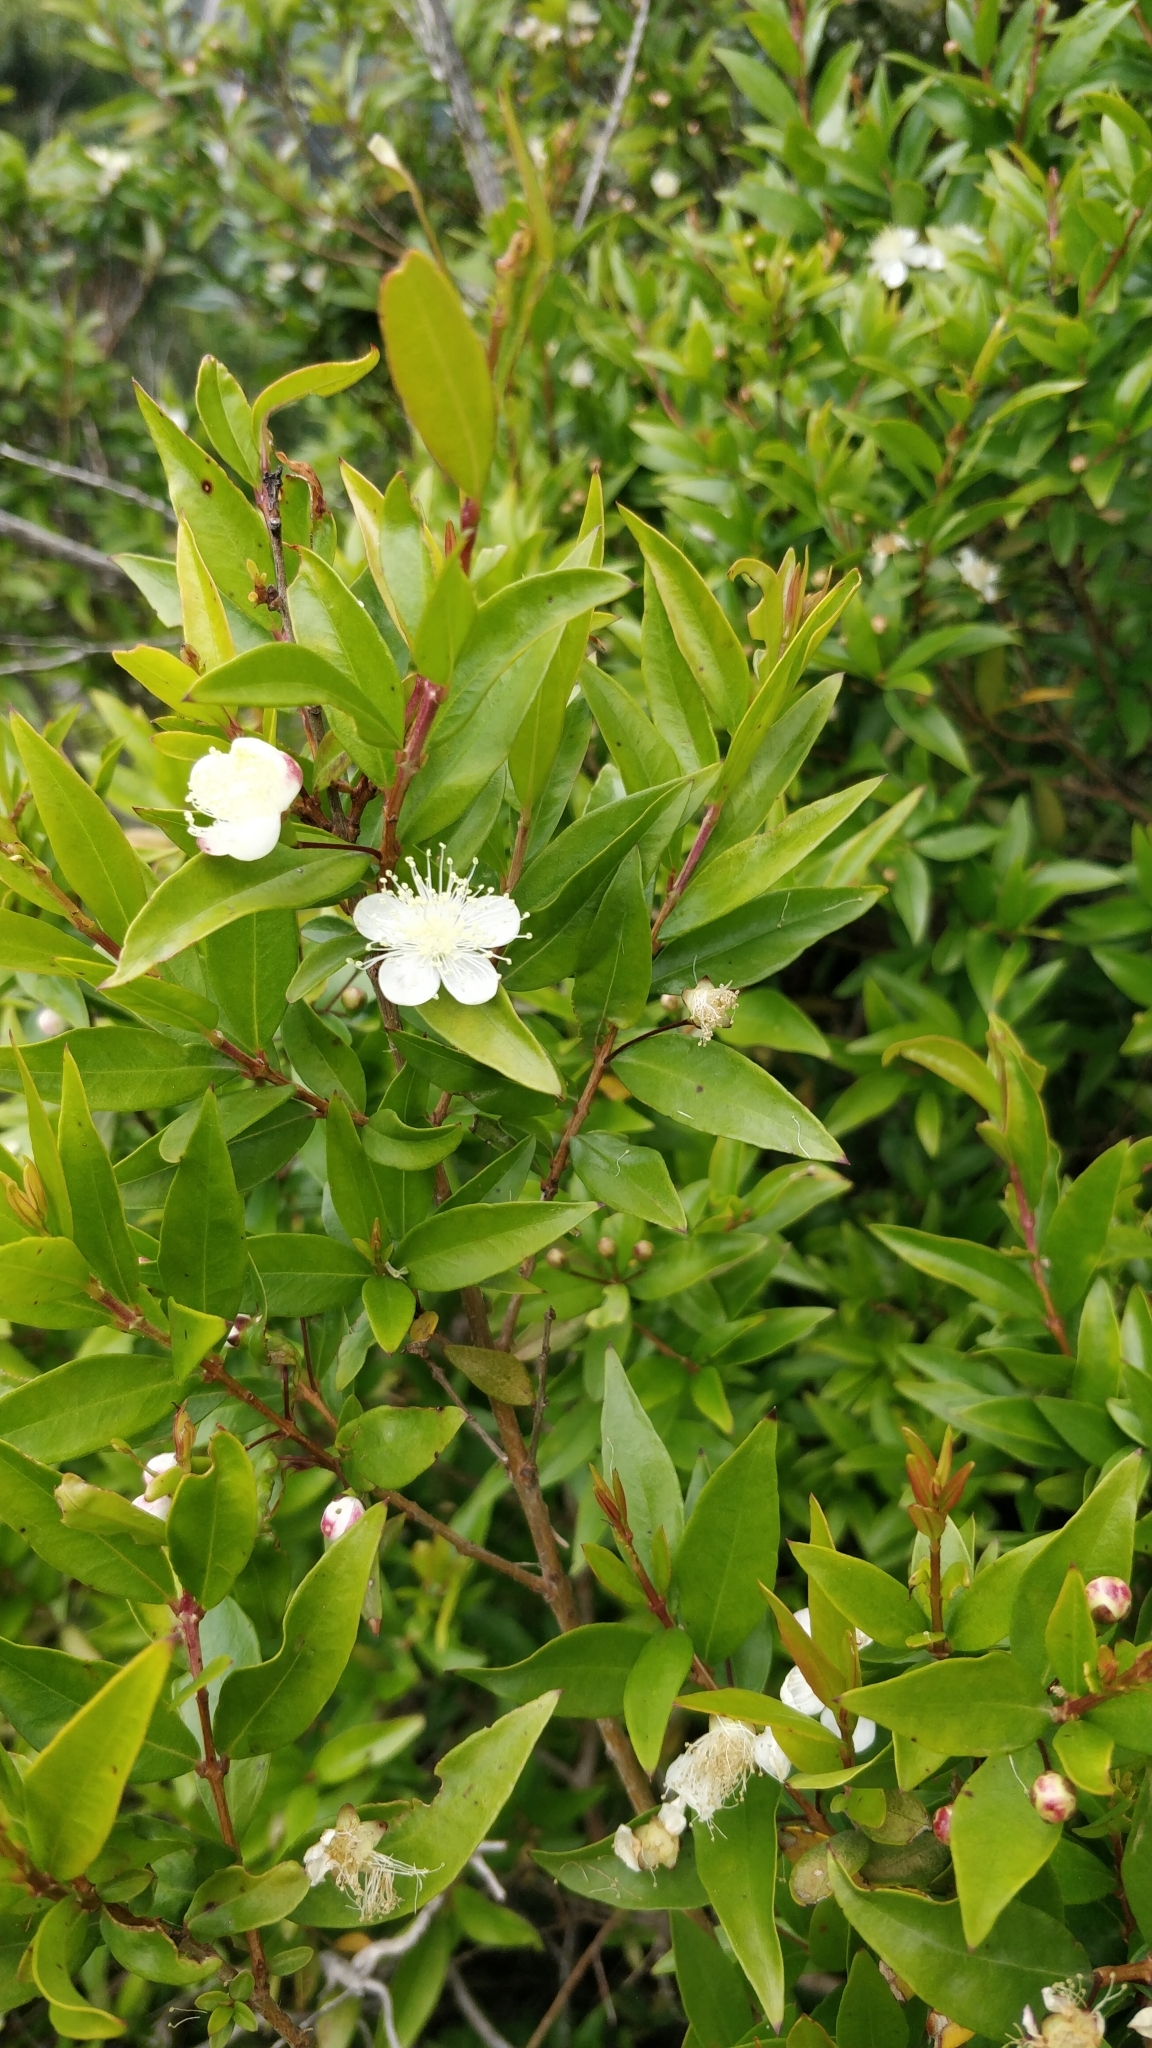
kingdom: Plantae
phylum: Tracheophyta
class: Magnoliopsida
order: Myrtales
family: Myrtaceae
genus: Myrtus
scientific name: Myrtus communis
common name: Myrtle
